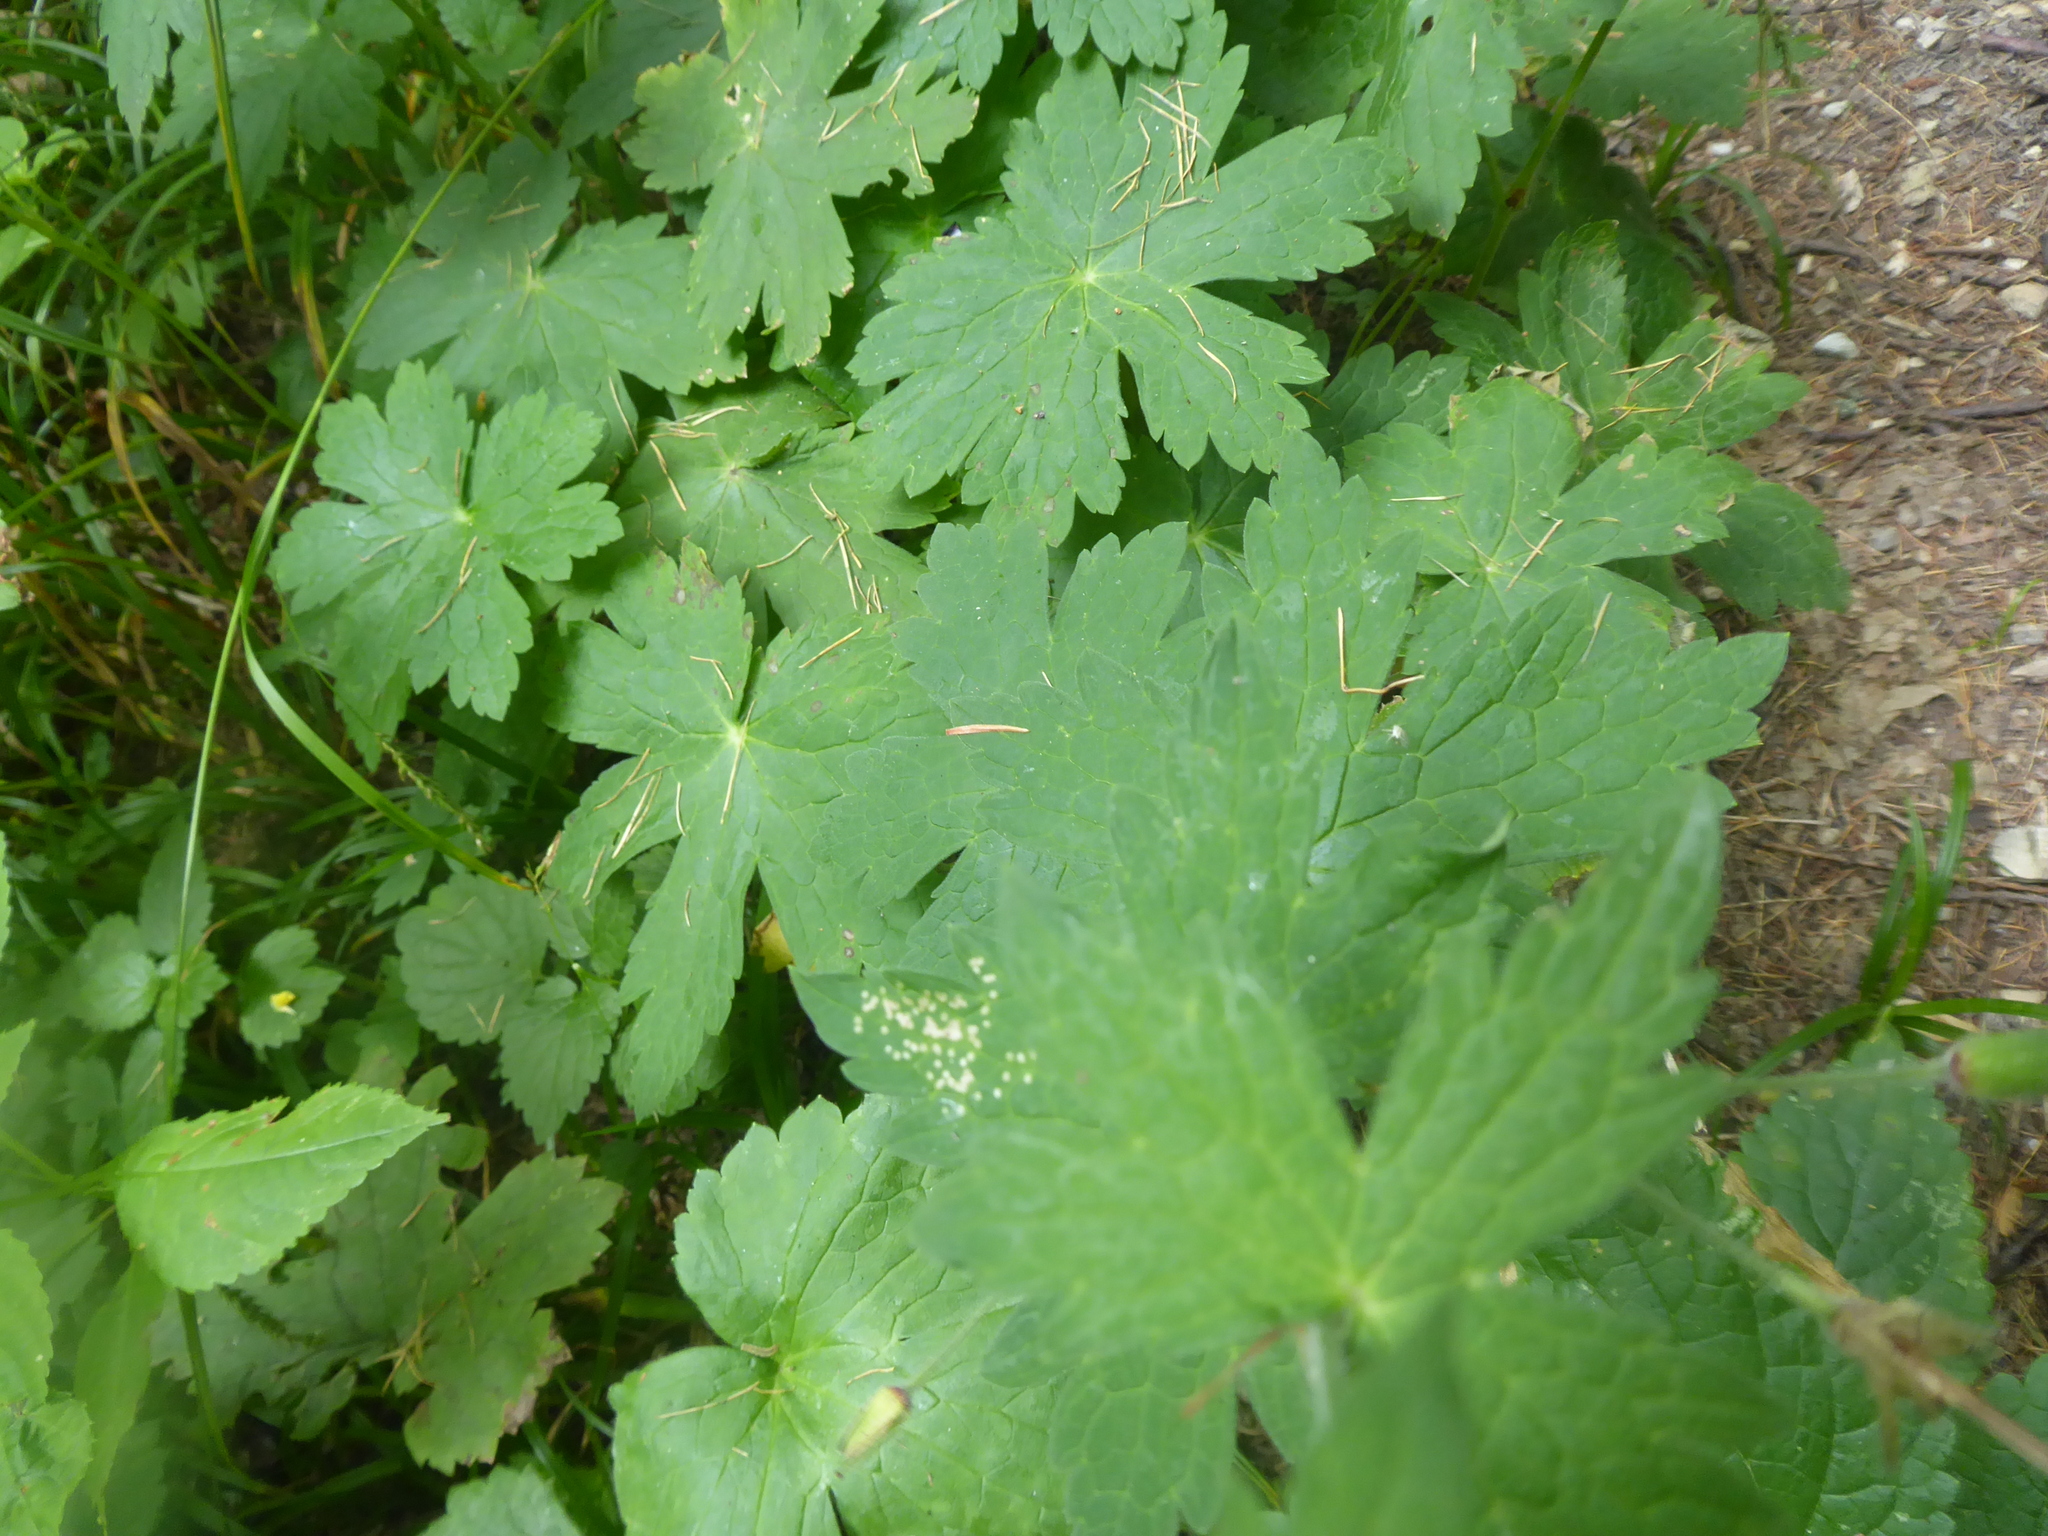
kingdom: Plantae
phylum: Tracheophyta
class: Magnoliopsida
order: Geraniales
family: Geraniaceae
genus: Geranium
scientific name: Geranium phaeum
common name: Dusky crane's-bill
